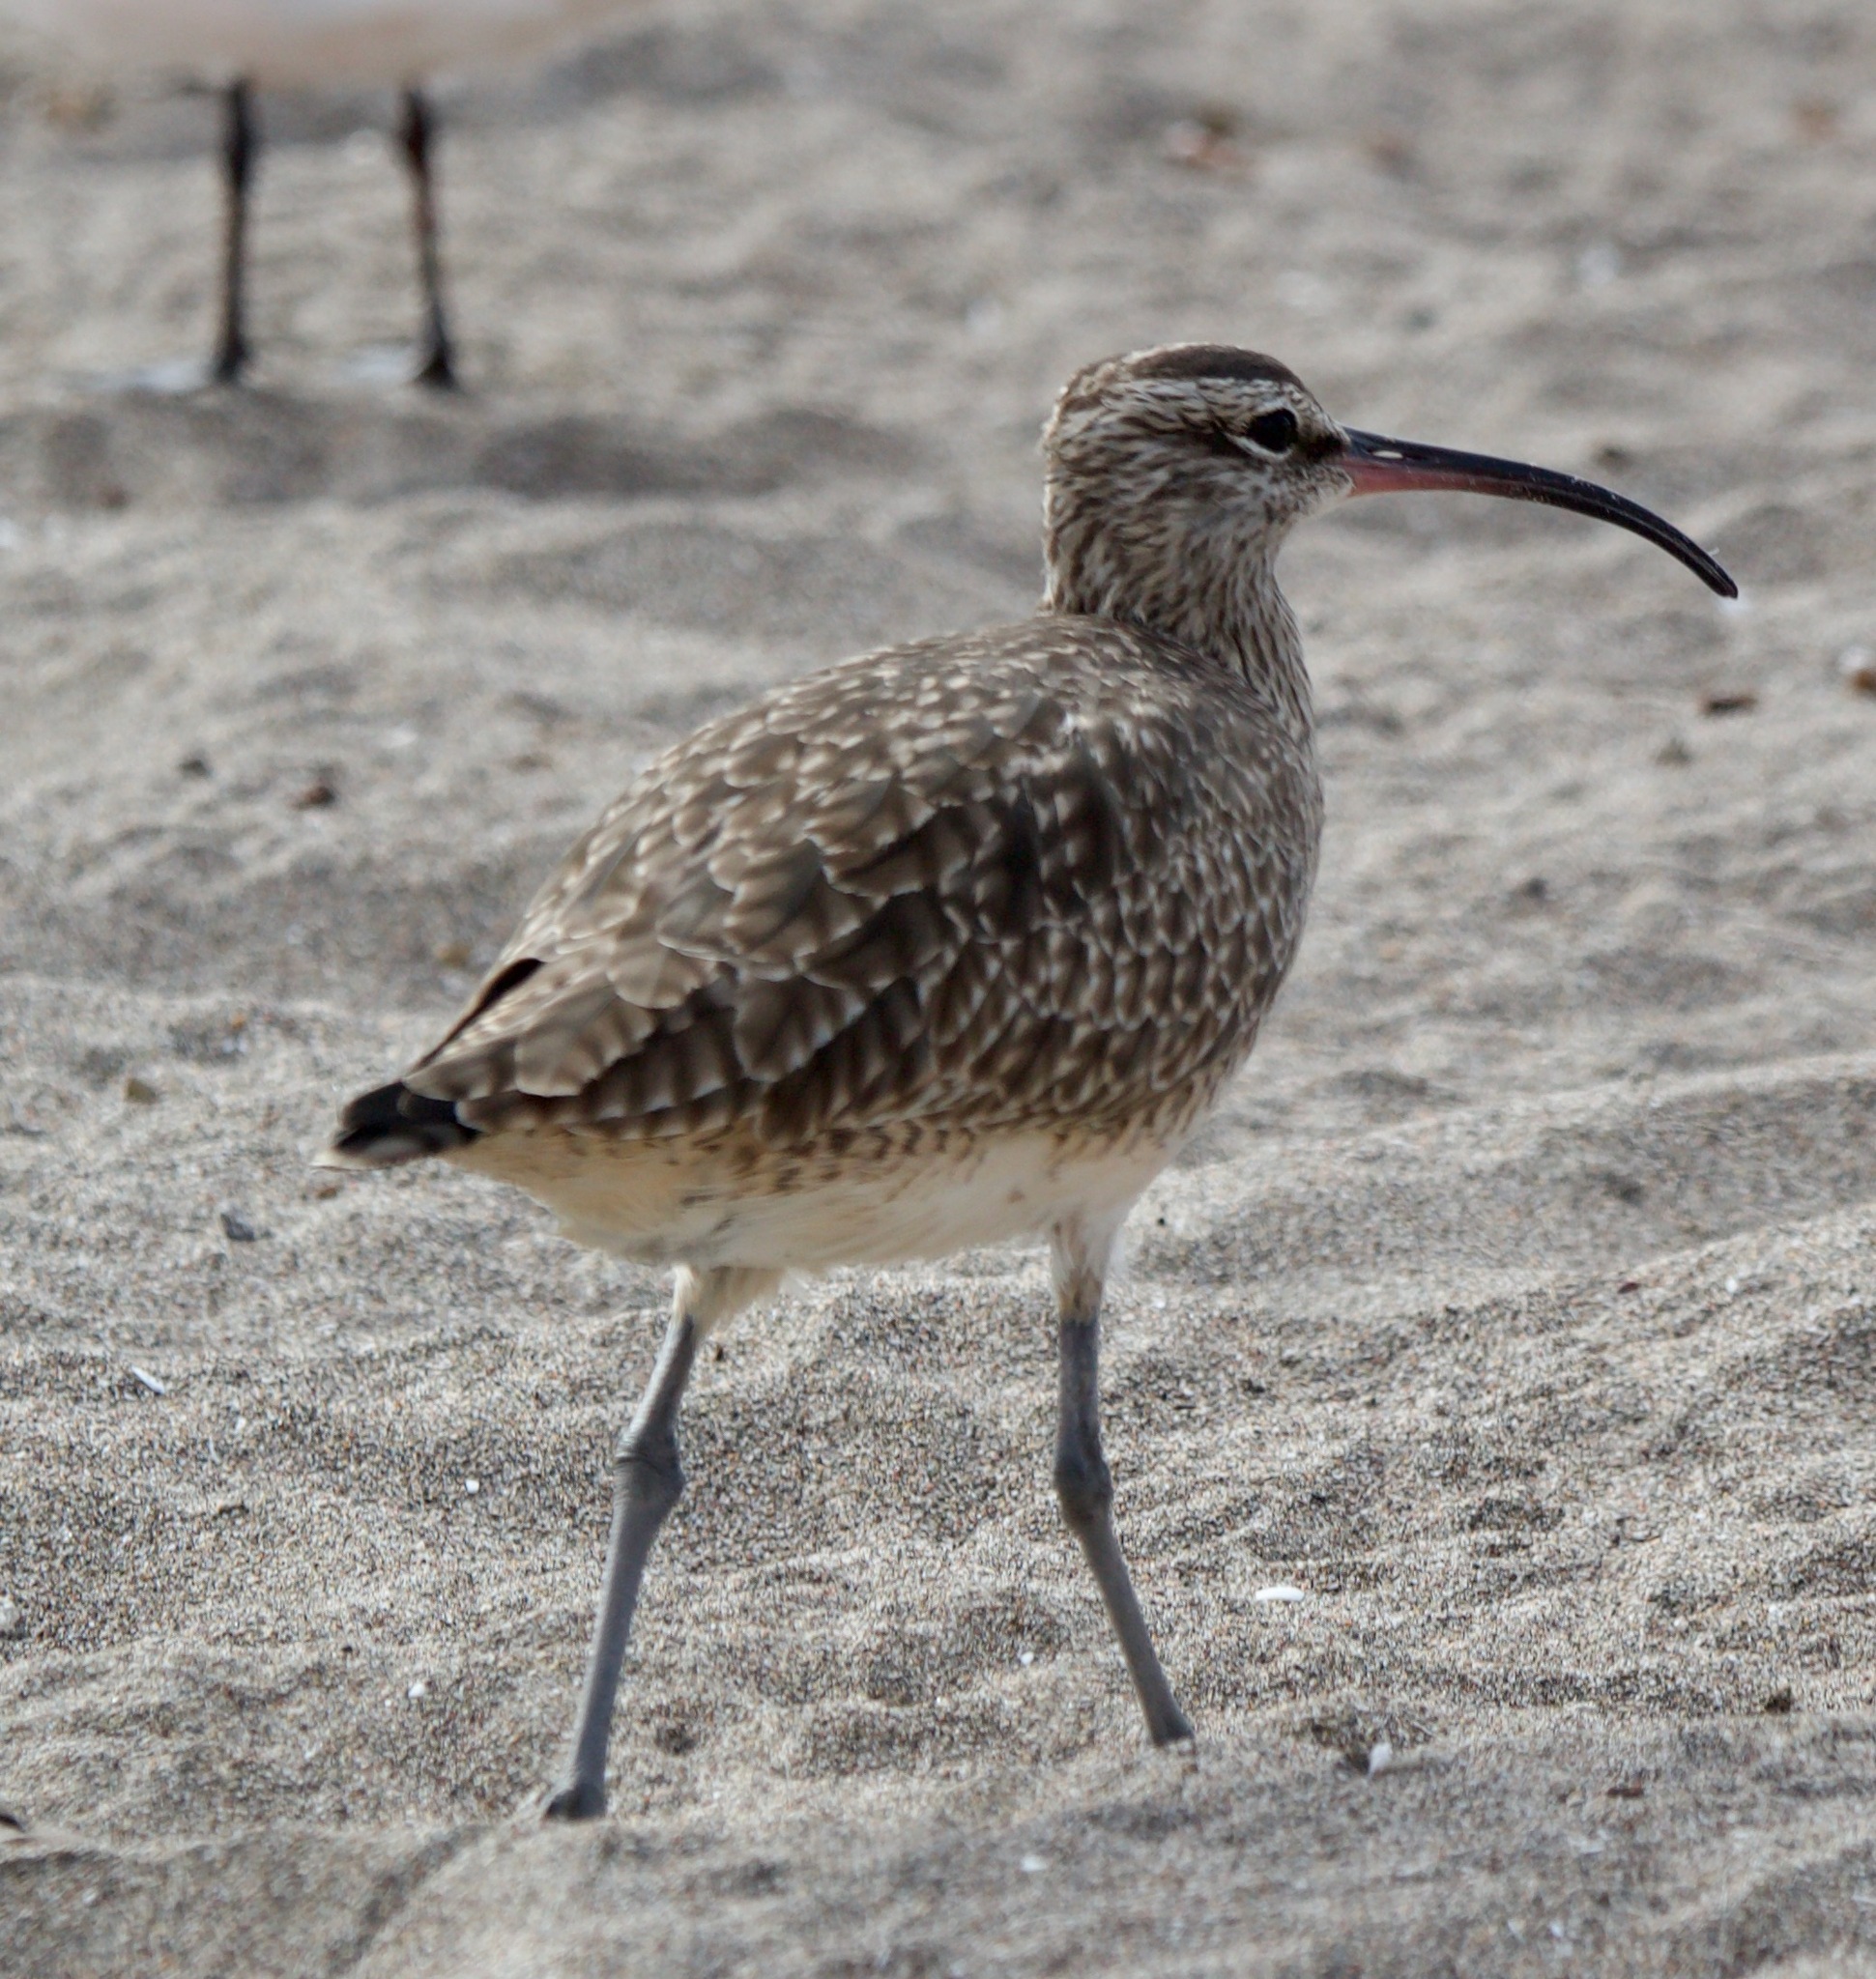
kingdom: Animalia
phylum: Chordata
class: Aves
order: Charadriiformes
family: Scolopacidae
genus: Numenius
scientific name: Numenius phaeopus
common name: Whimbrel
